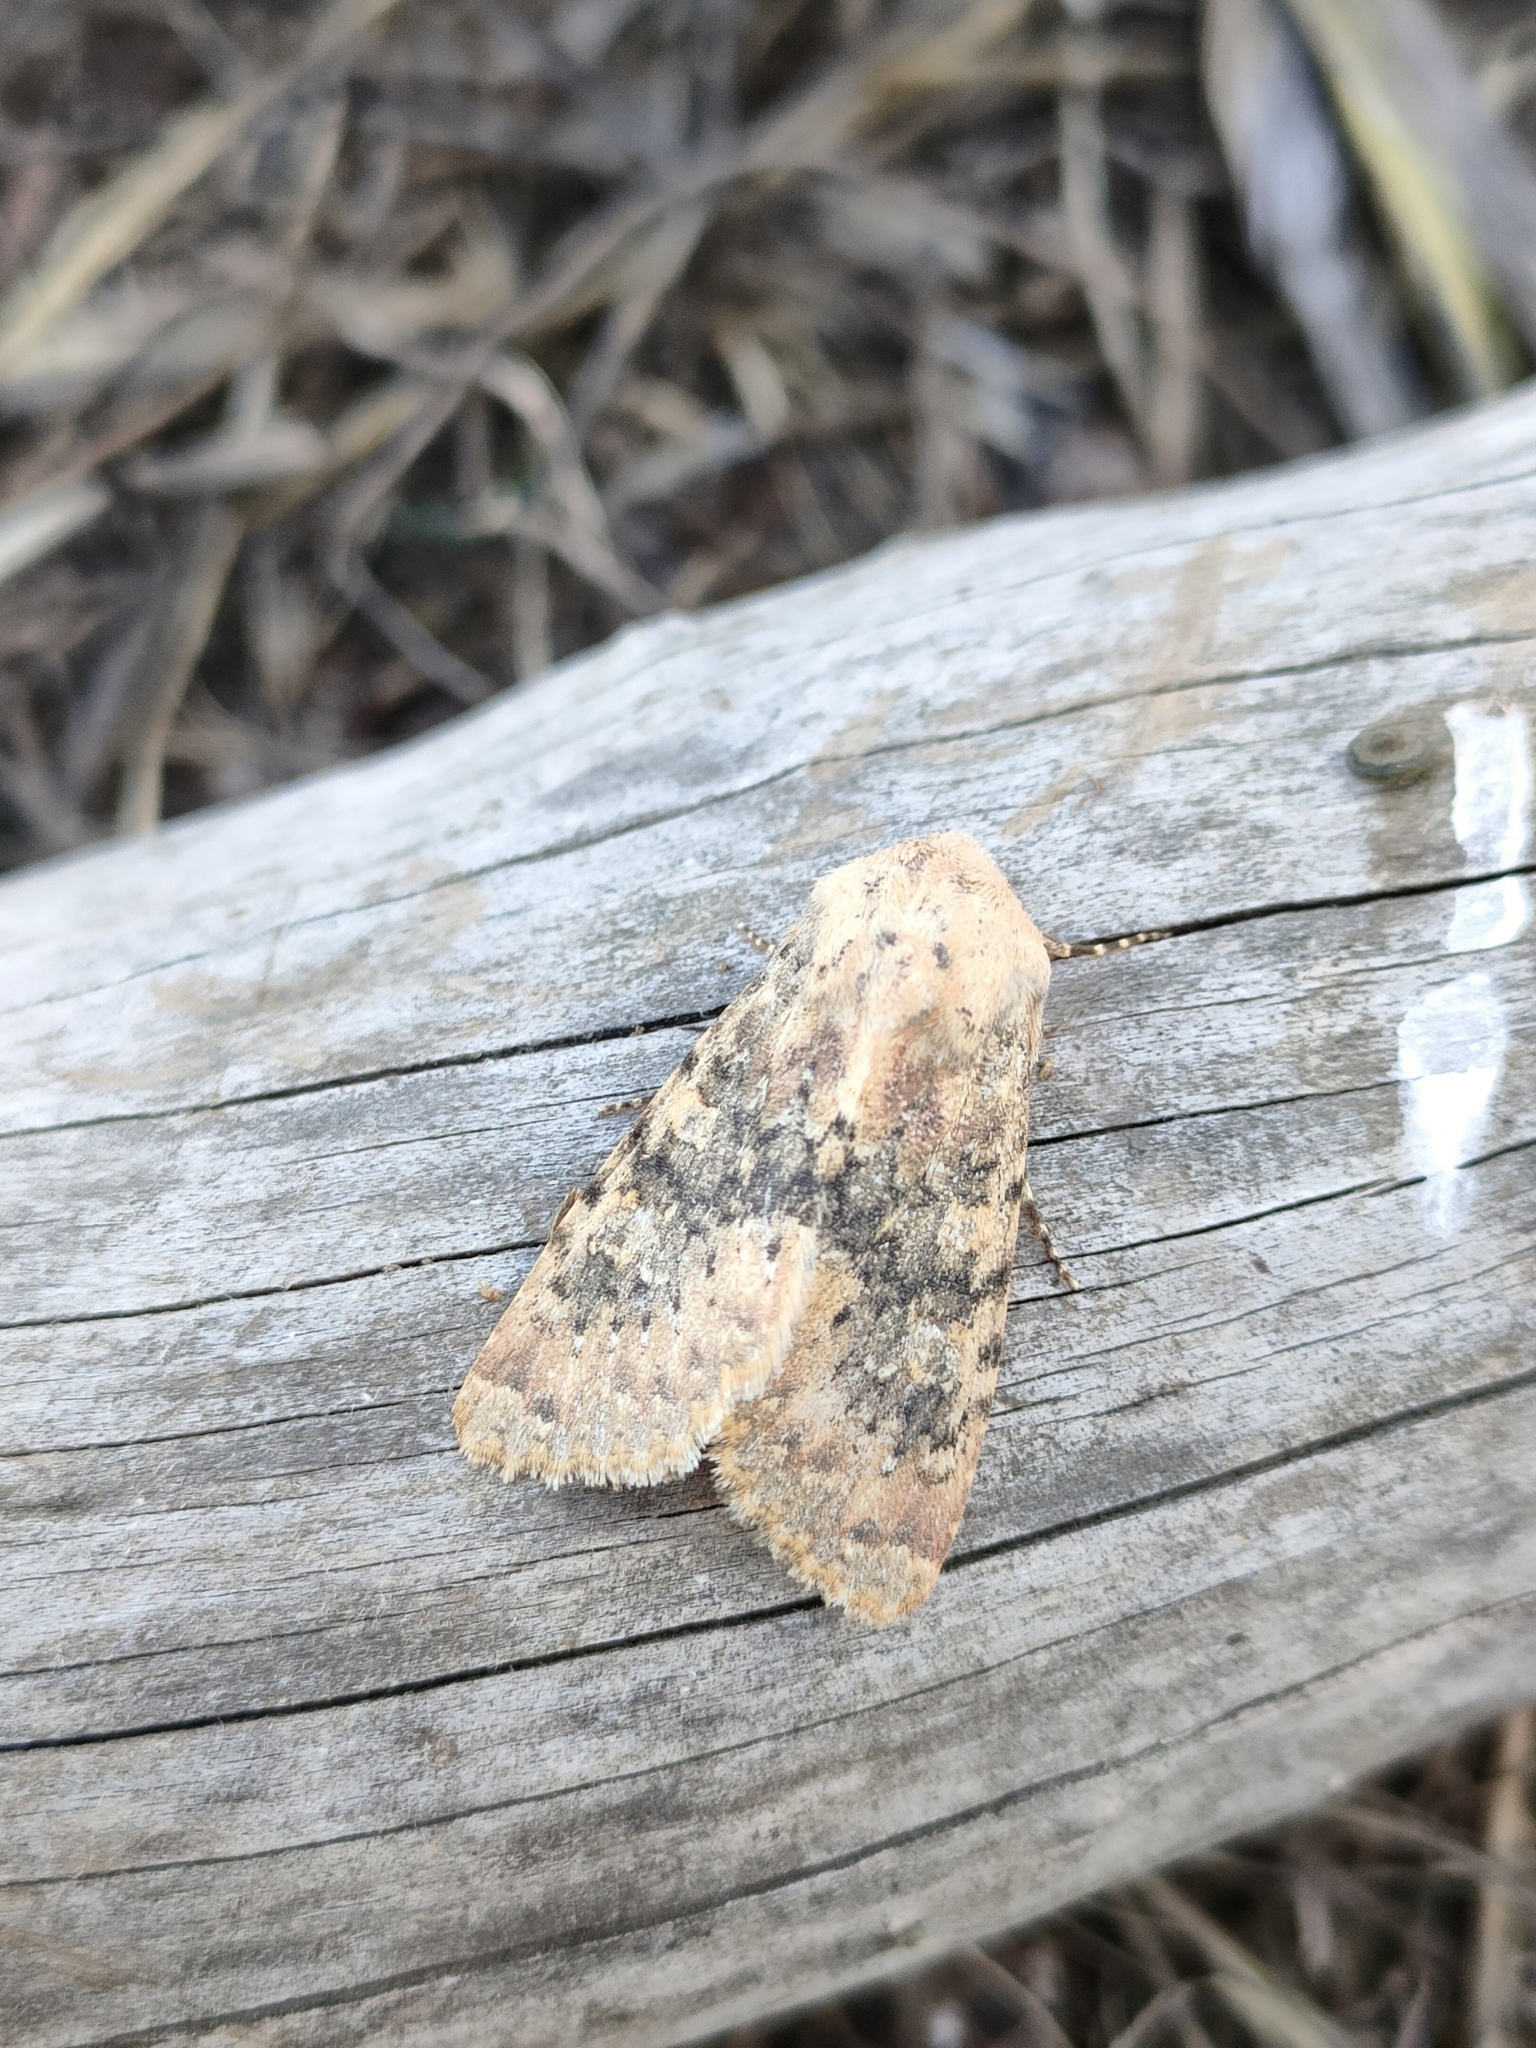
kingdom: Animalia
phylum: Arthropoda
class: Insecta
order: Lepidoptera
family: Noctuidae
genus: Polymixis
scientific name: Polymixis argillaceago
